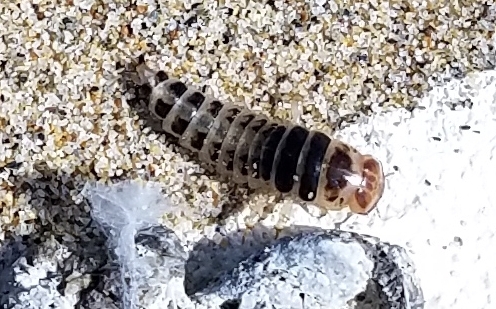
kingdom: Animalia
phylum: Arthropoda
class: Insecta
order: Coleoptera
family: Staphylinidae
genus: Thinopinus
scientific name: Thinopinus pictus
